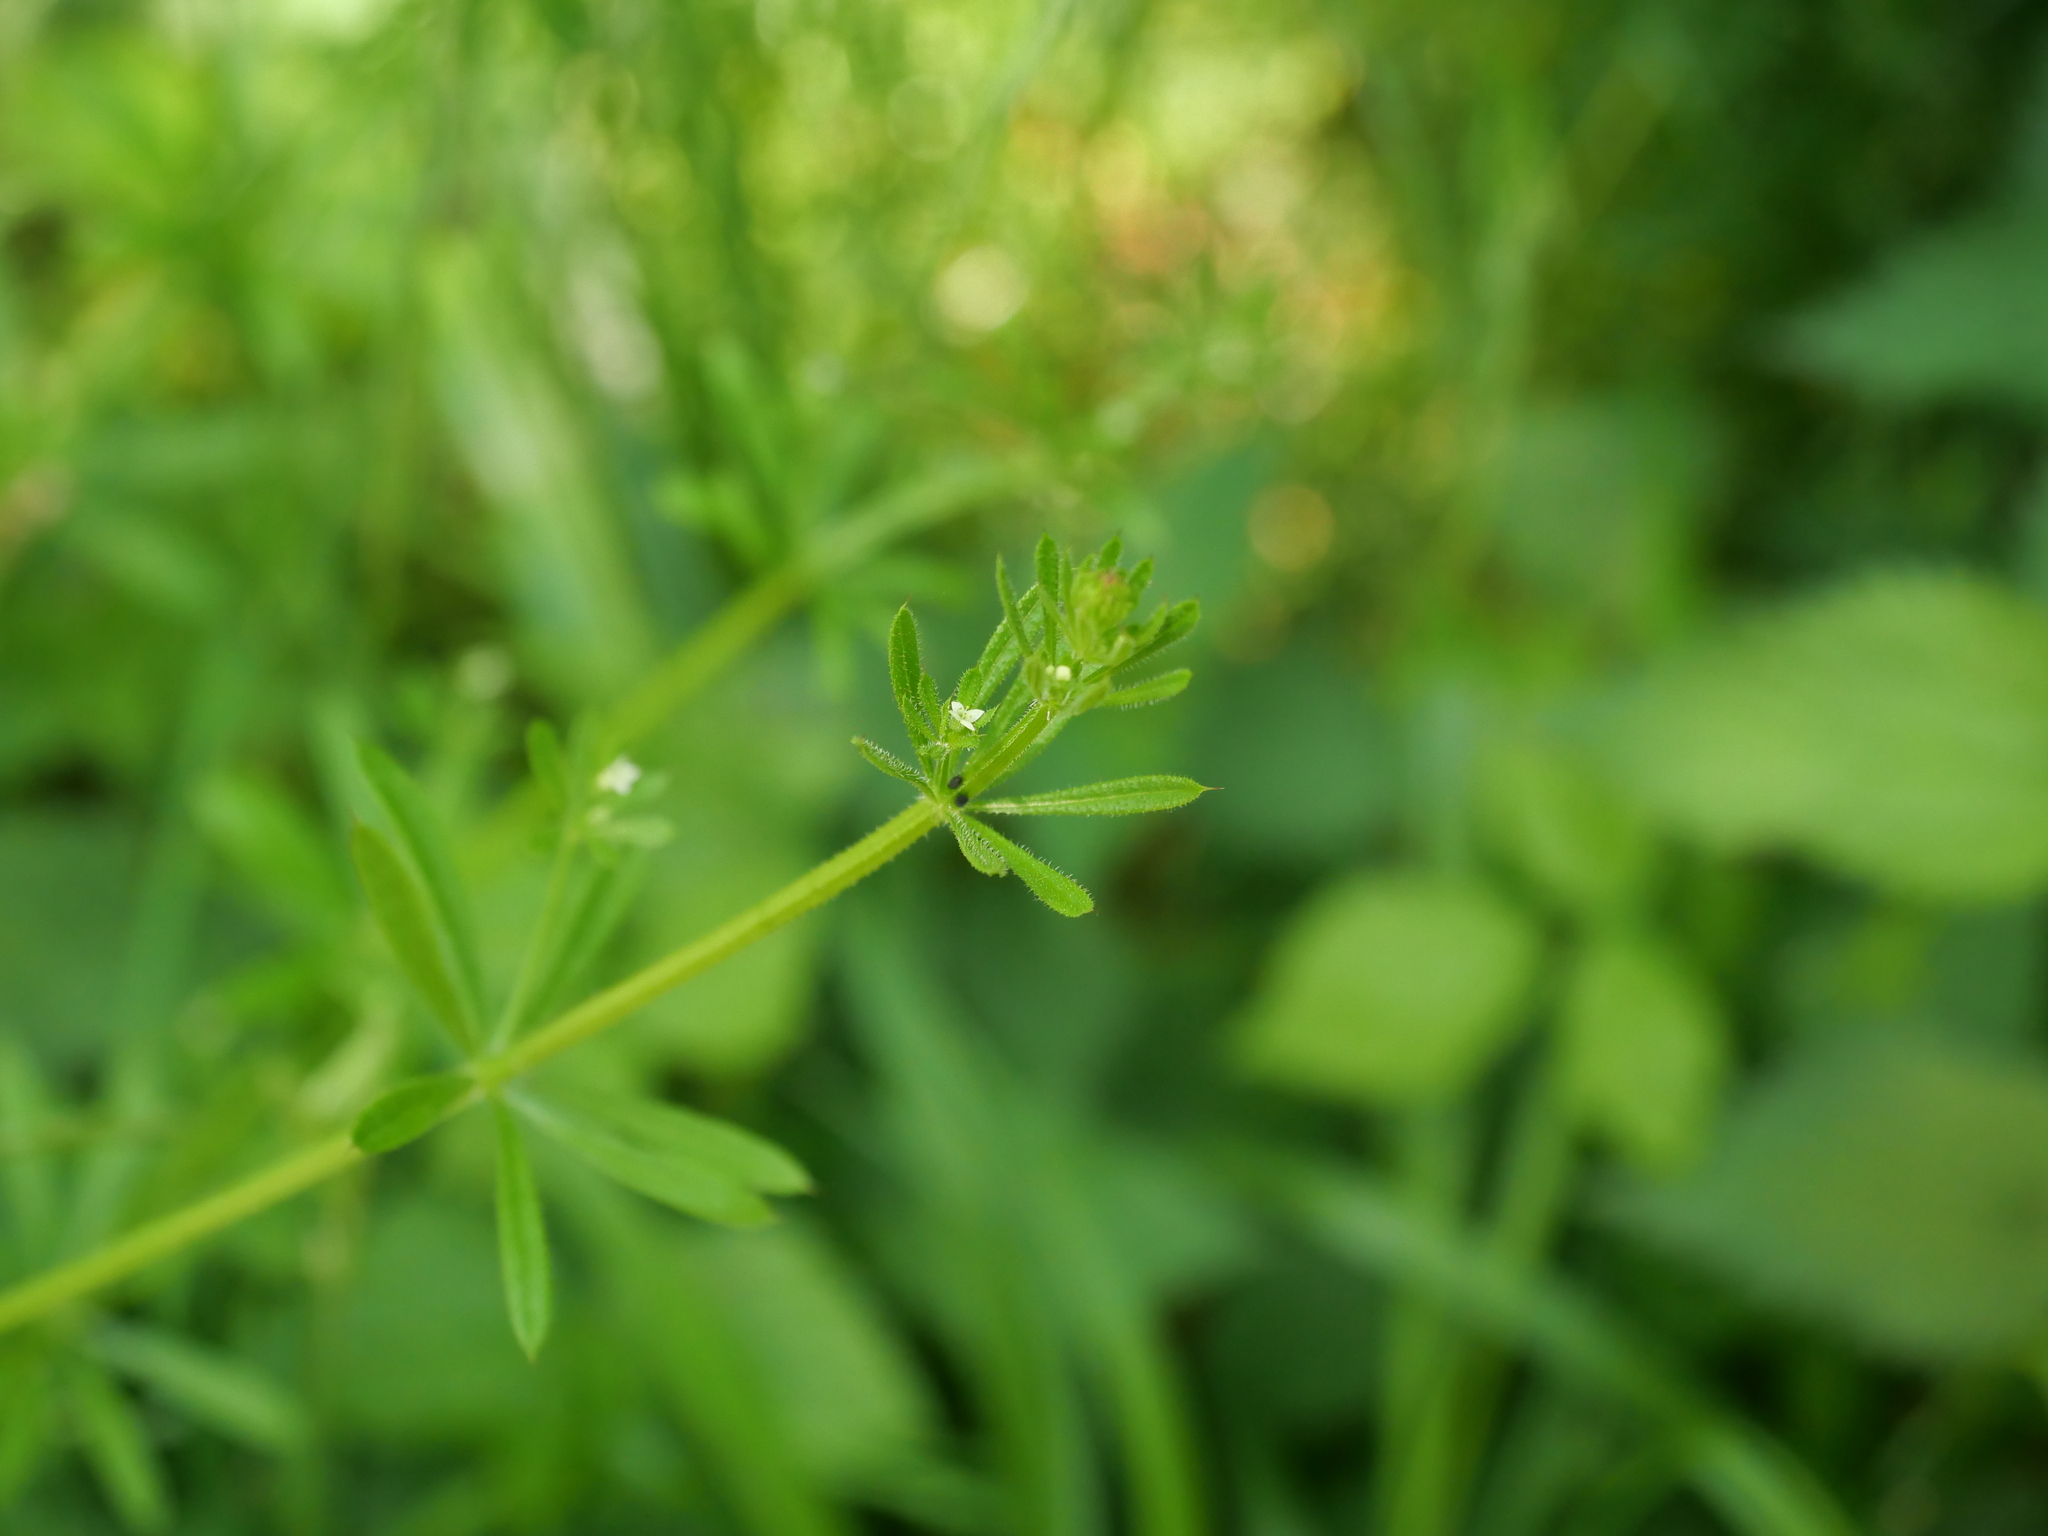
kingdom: Plantae
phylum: Tracheophyta
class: Magnoliopsida
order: Gentianales
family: Rubiaceae
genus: Galium
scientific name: Galium aparine
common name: Cleavers
